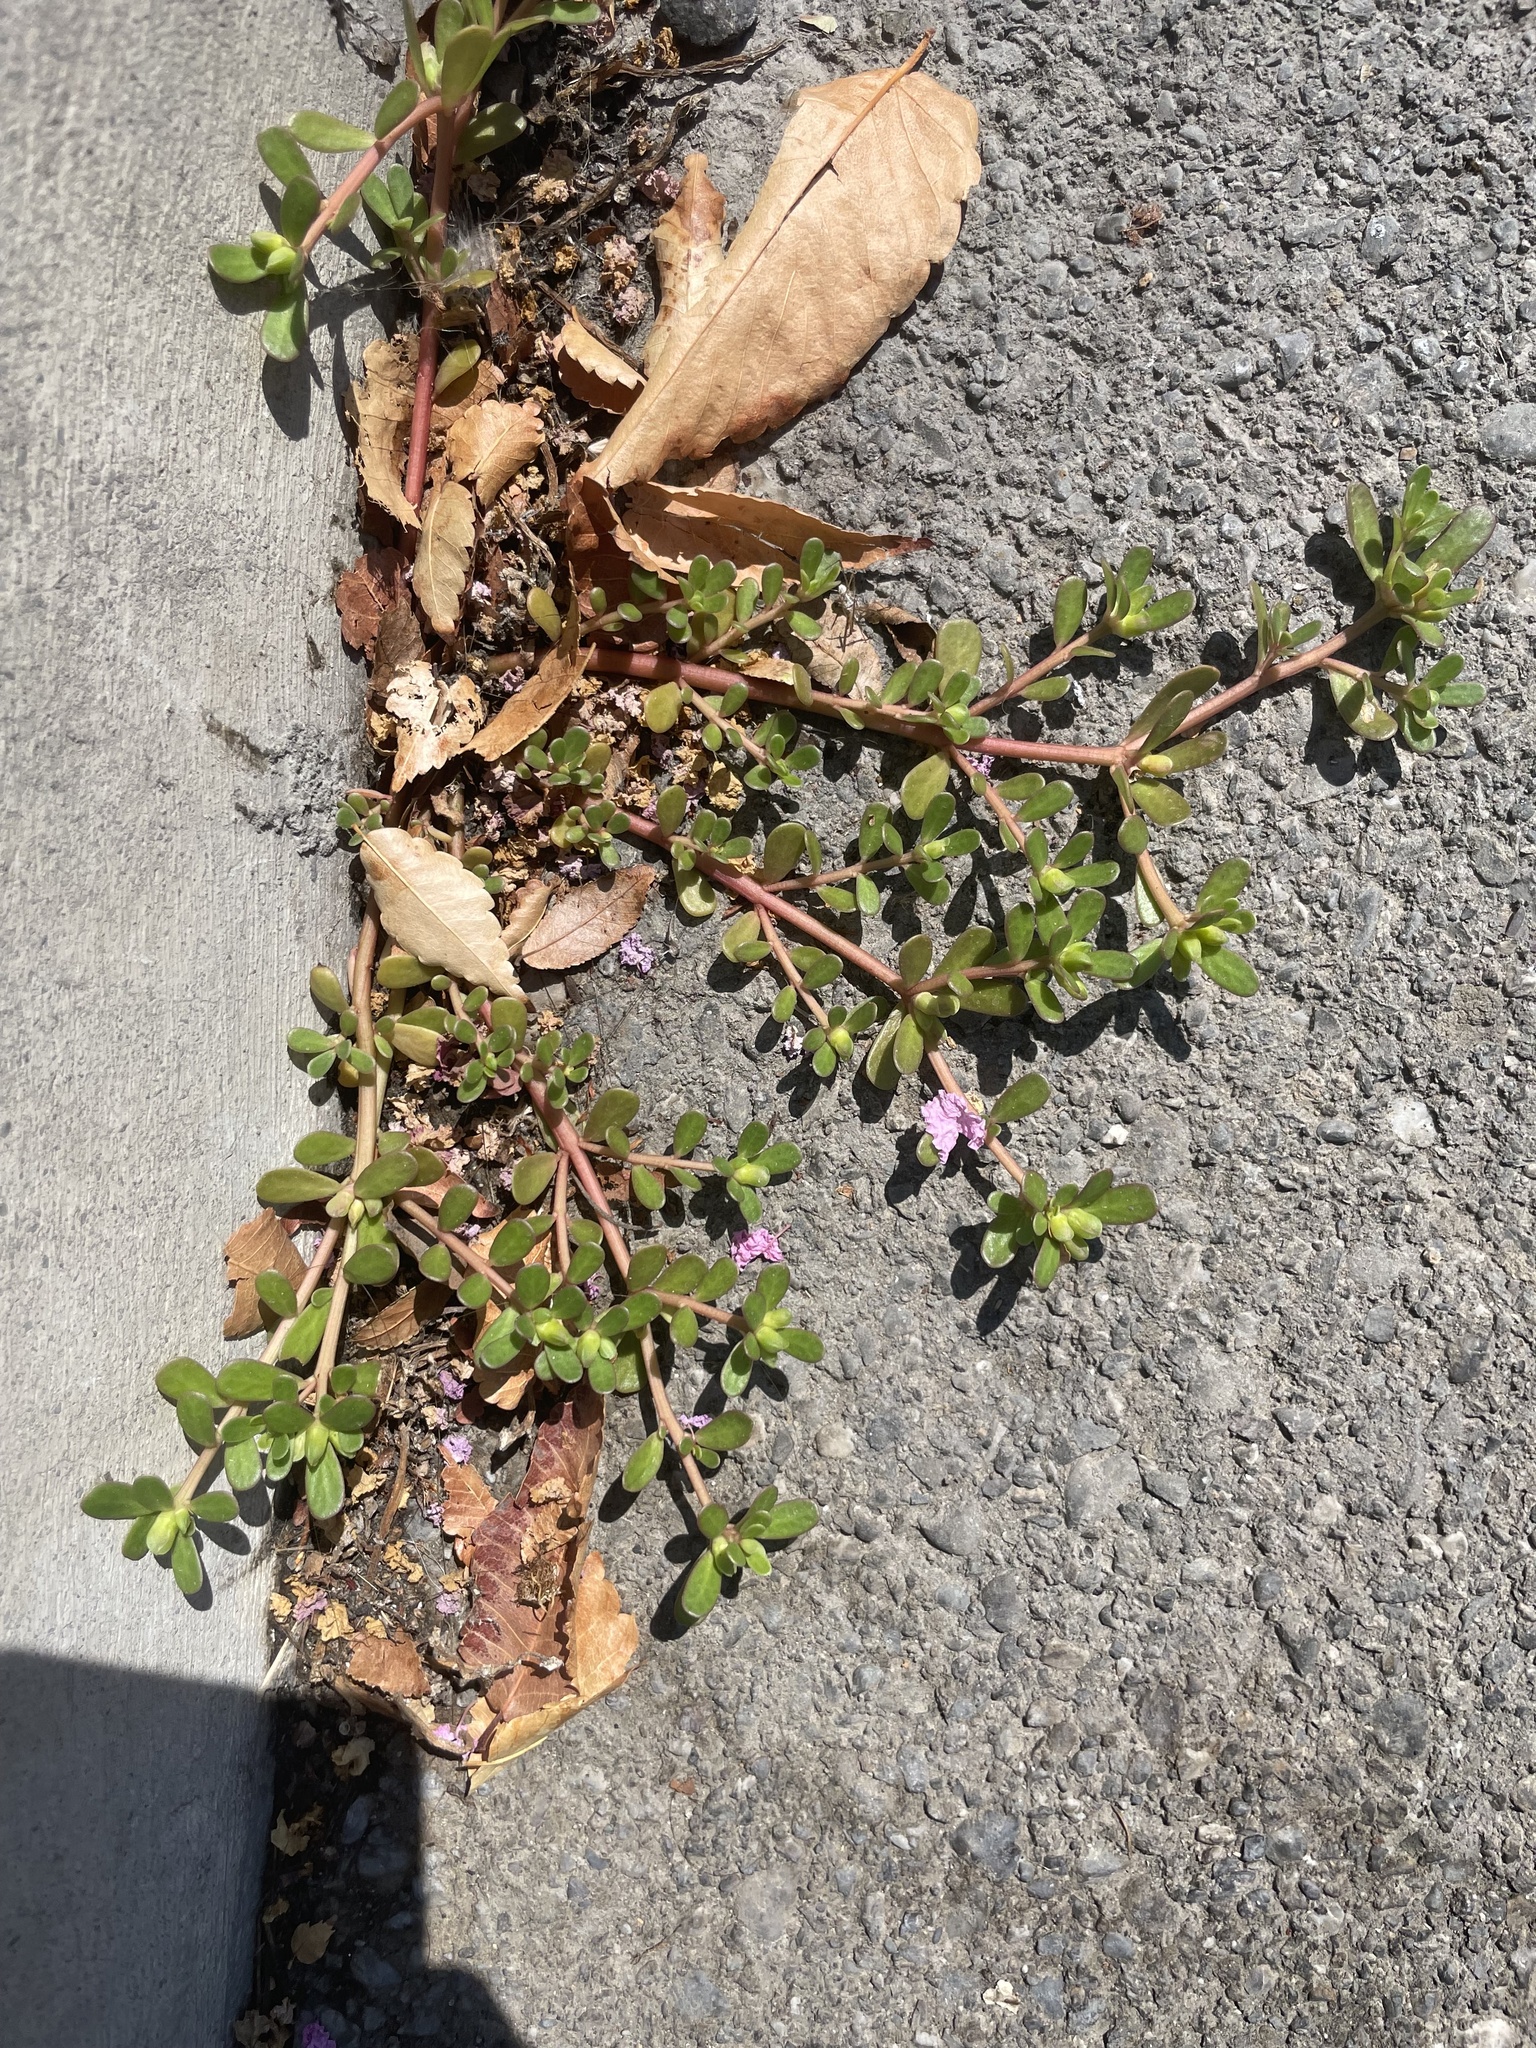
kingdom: Plantae
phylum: Tracheophyta
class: Magnoliopsida
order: Caryophyllales
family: Portulacaceae
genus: Portulaca
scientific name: Portulaca oleracea
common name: Common purslane
